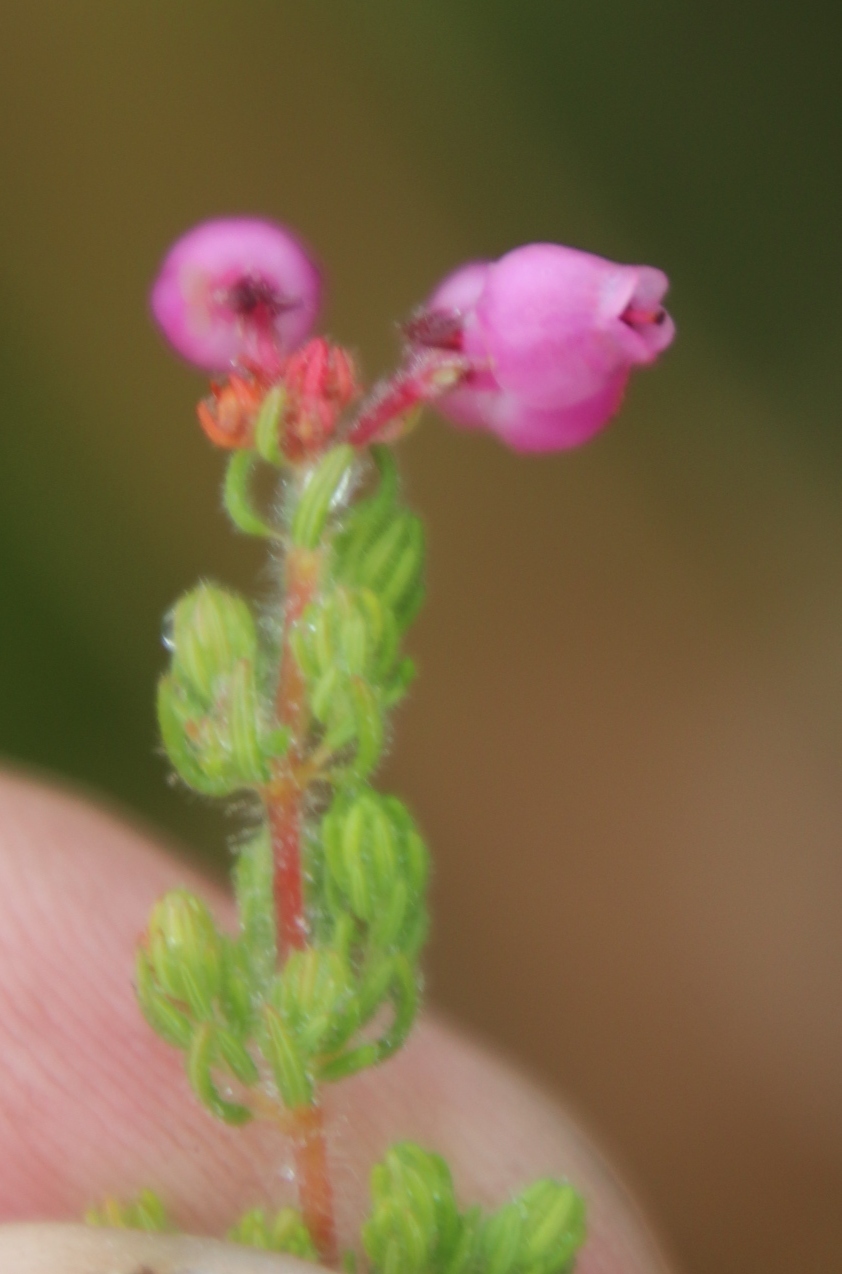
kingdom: Plantae
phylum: Tracheophyta
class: Magnoliopsida
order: Ericales
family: Ericaceae
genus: Erica
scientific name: Erica bergiana
